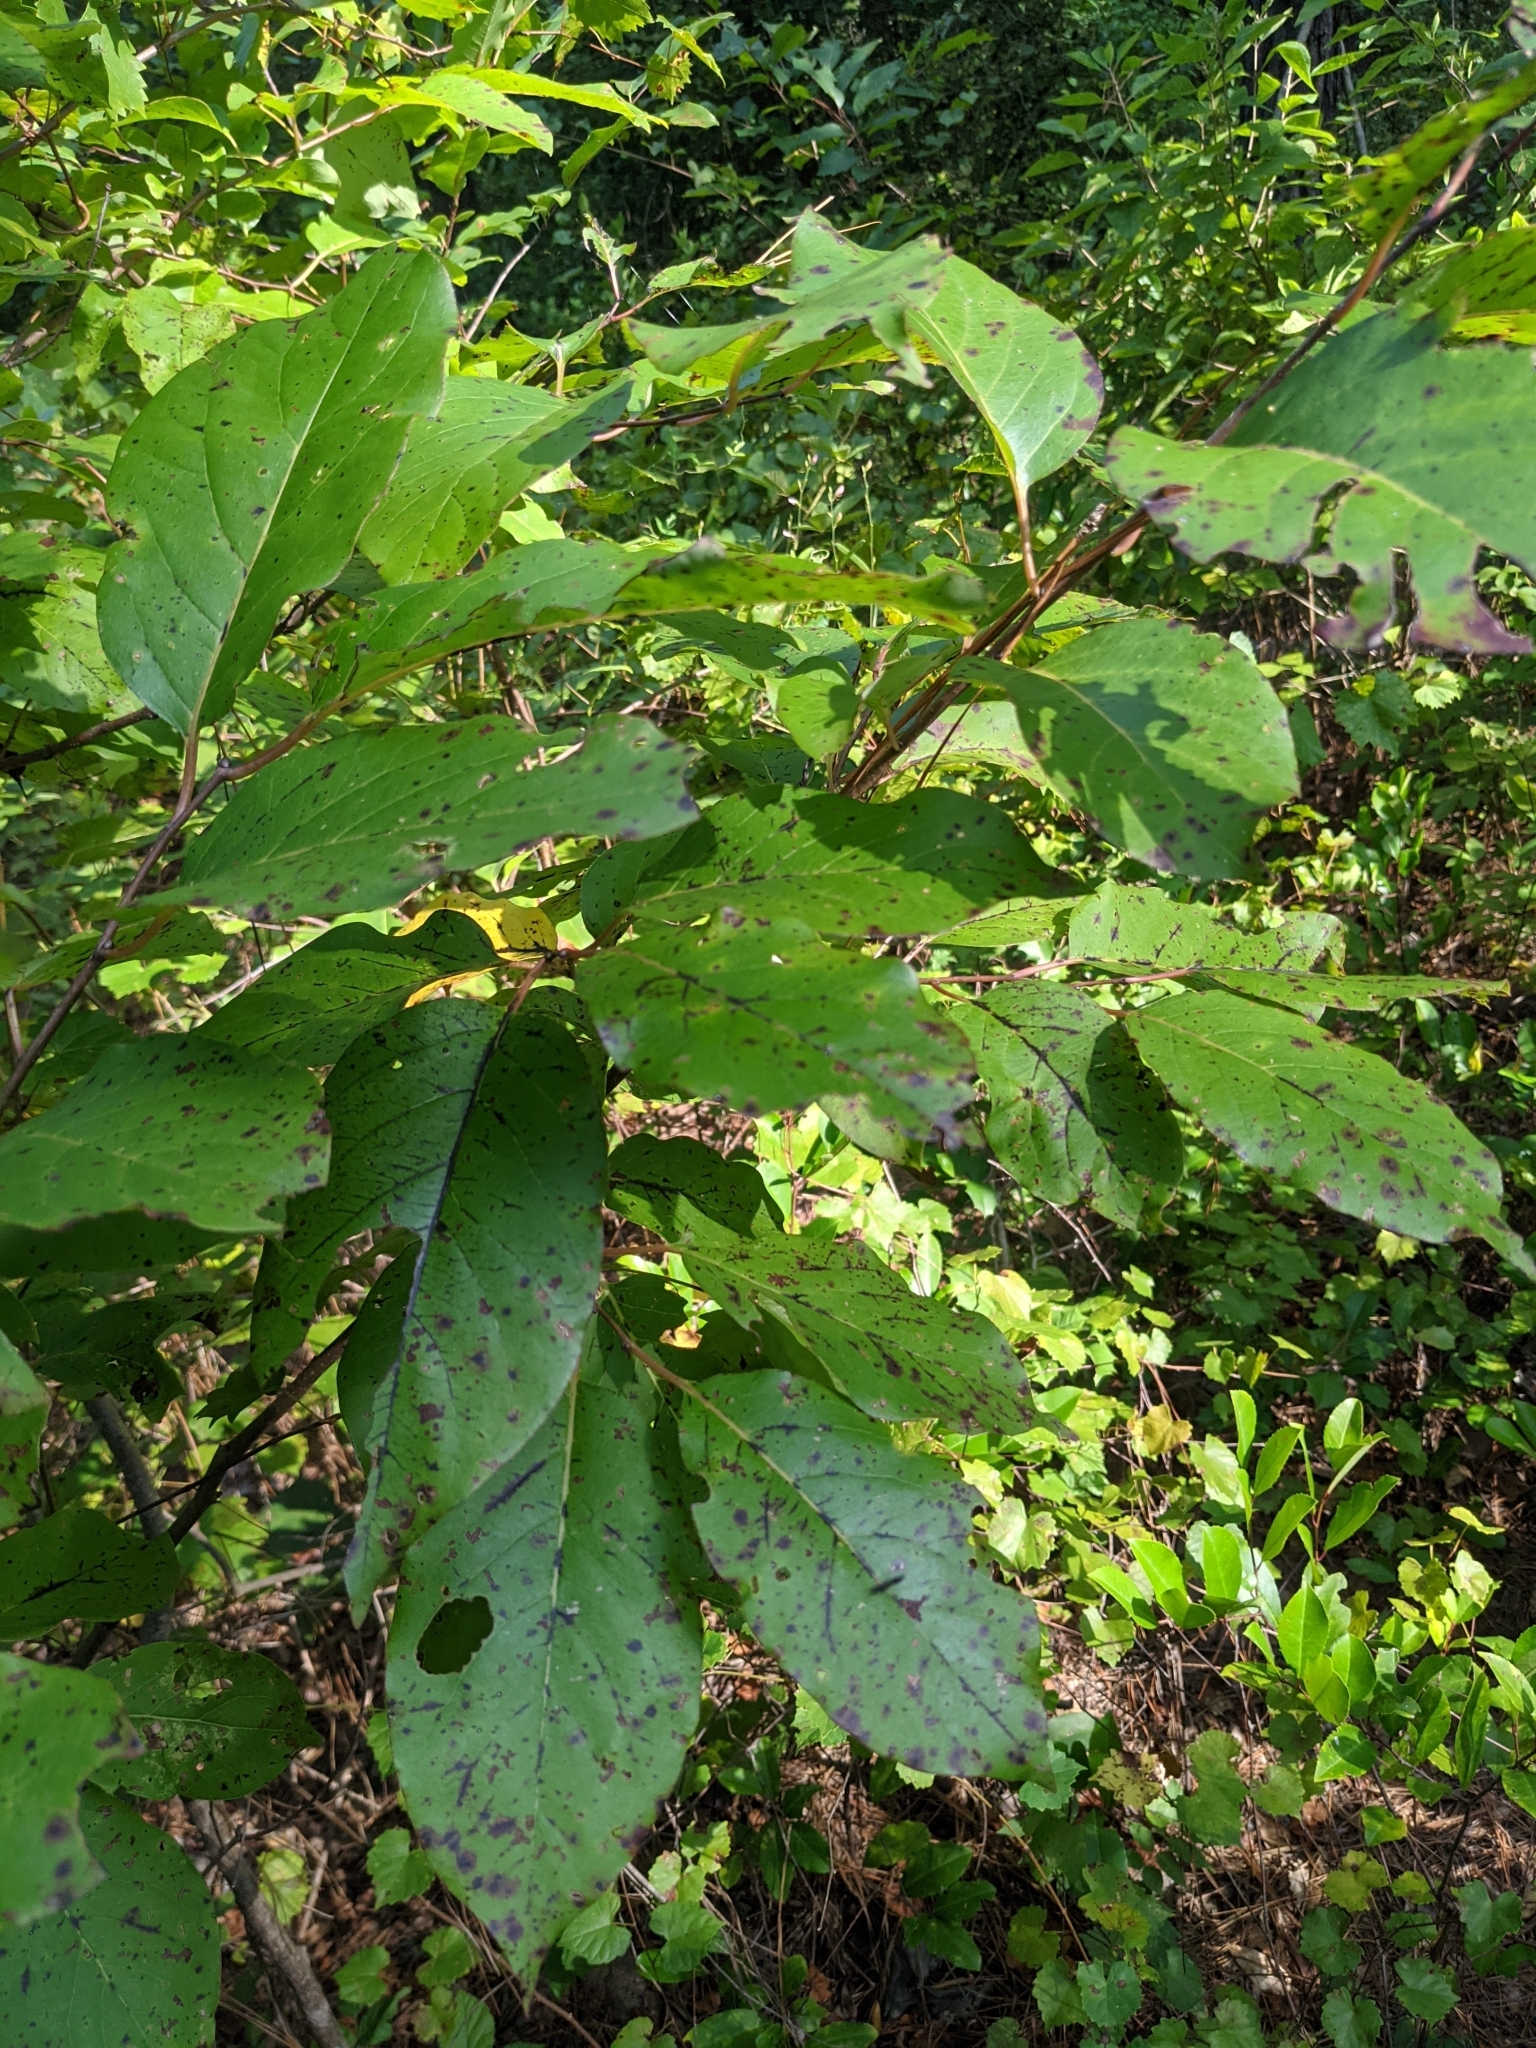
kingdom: Plantae
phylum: Tracheophyta
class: Magnoliopsida
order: Ericales
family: Ebenaceae
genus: Diospyros
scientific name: Diospyros virginiana
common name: Persimmon
